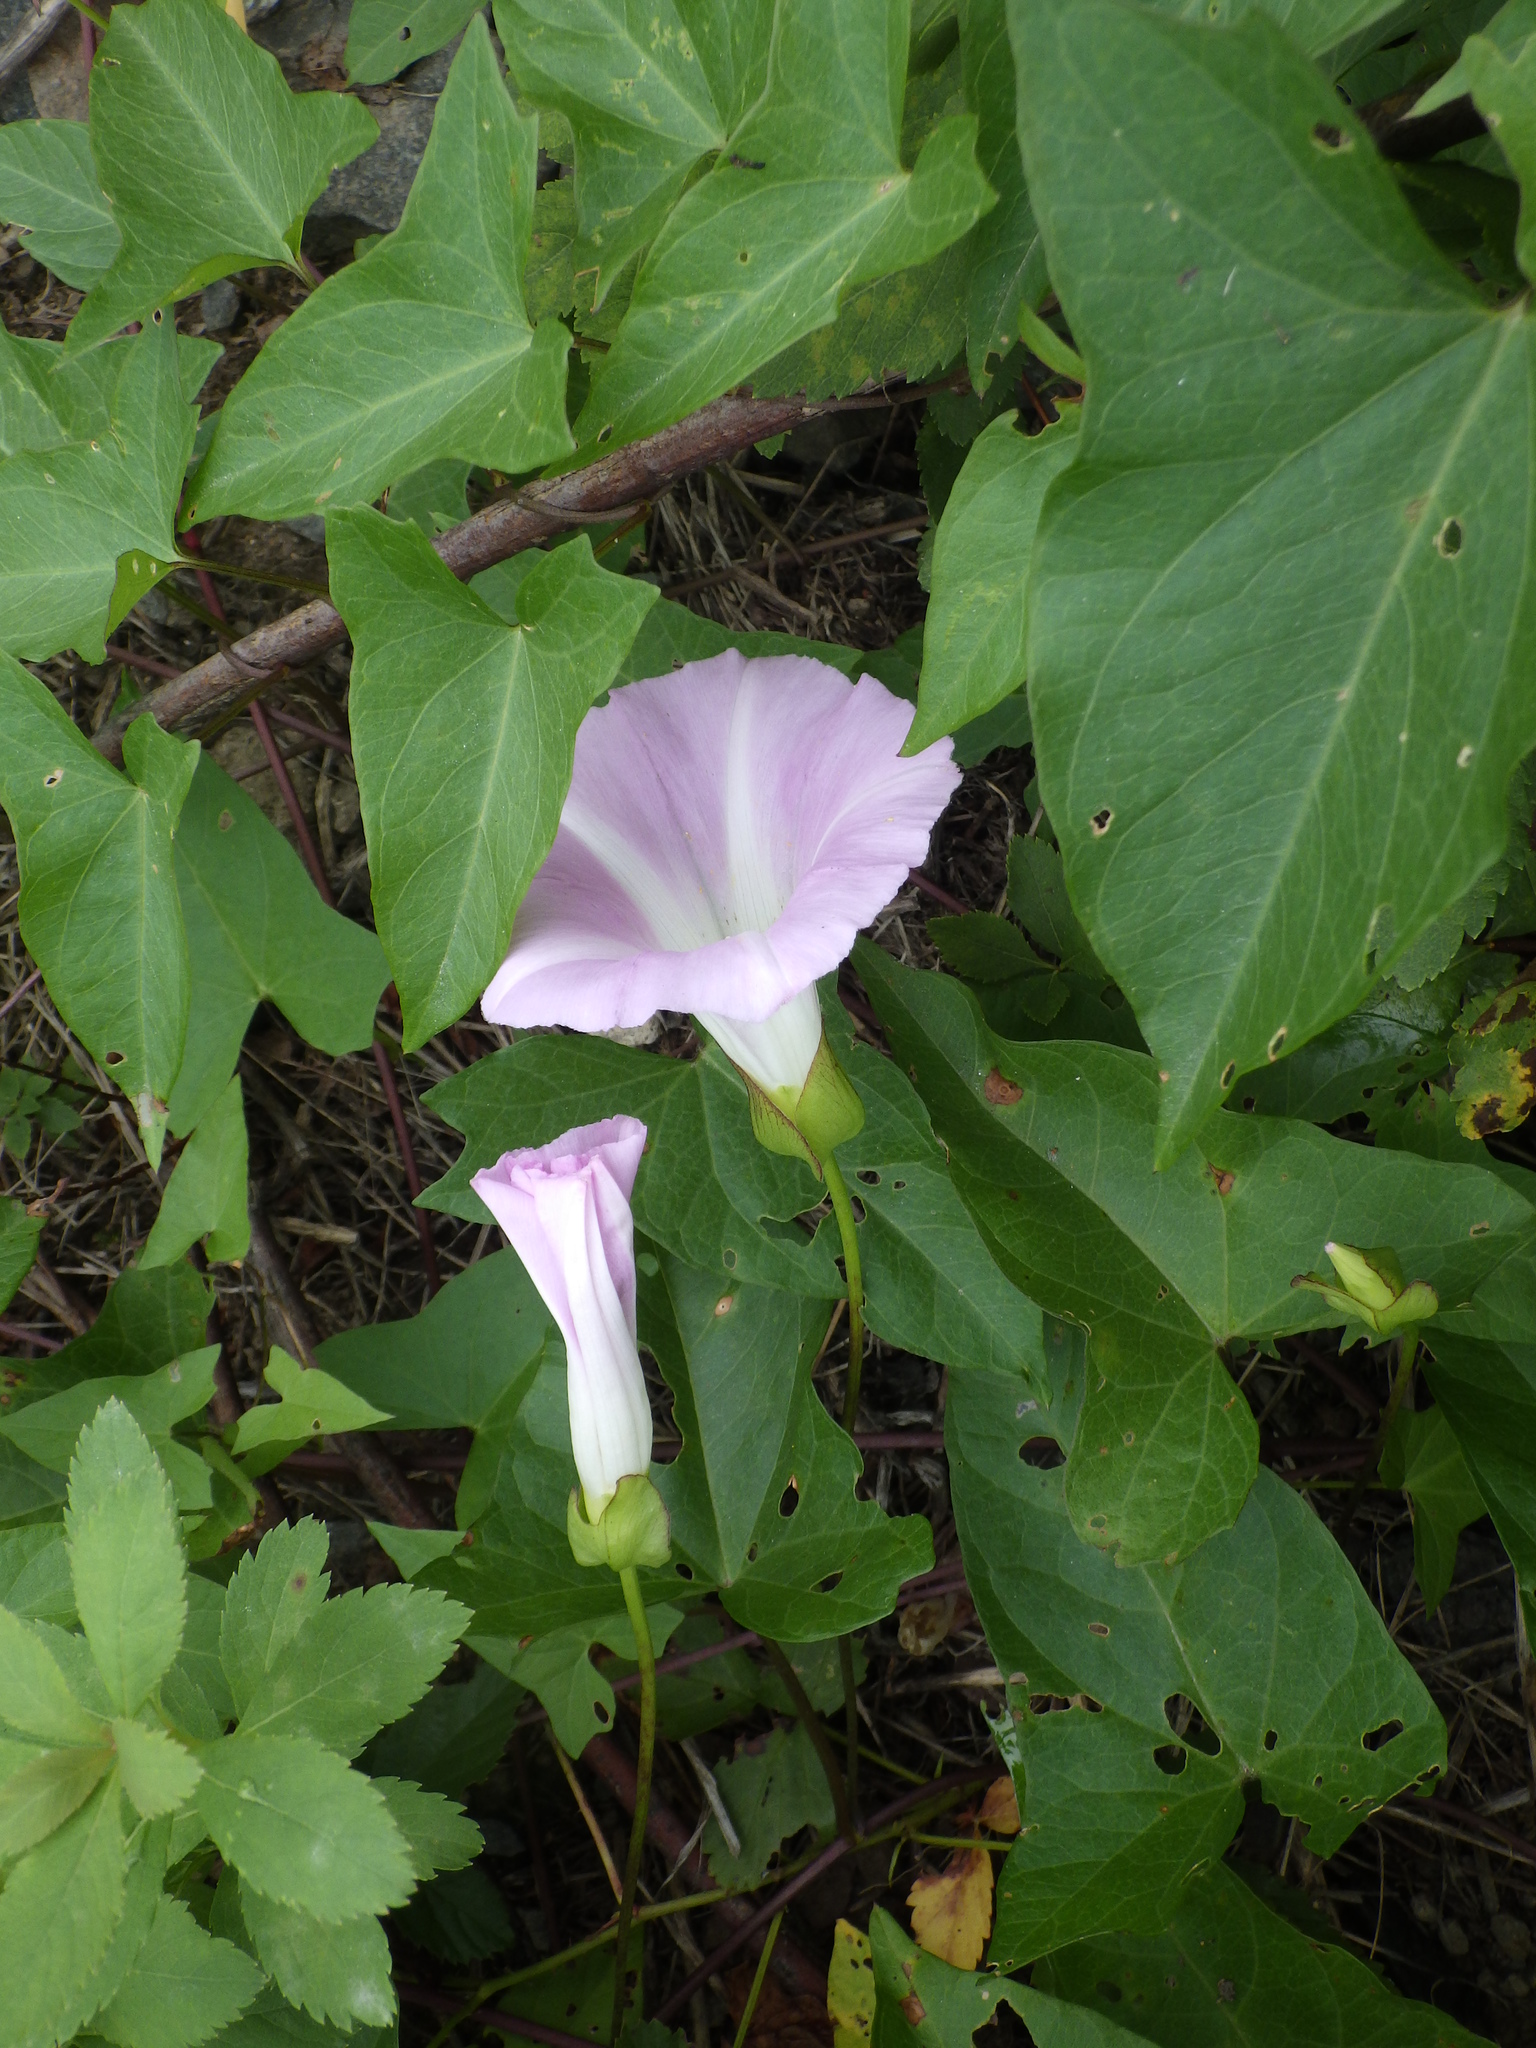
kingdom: Plantae
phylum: Tracheophyta
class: Magnoliopsida
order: Solanales
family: Convolvulaceae
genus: Calystegia
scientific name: Calystegia sepium
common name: Hedge bindweed
